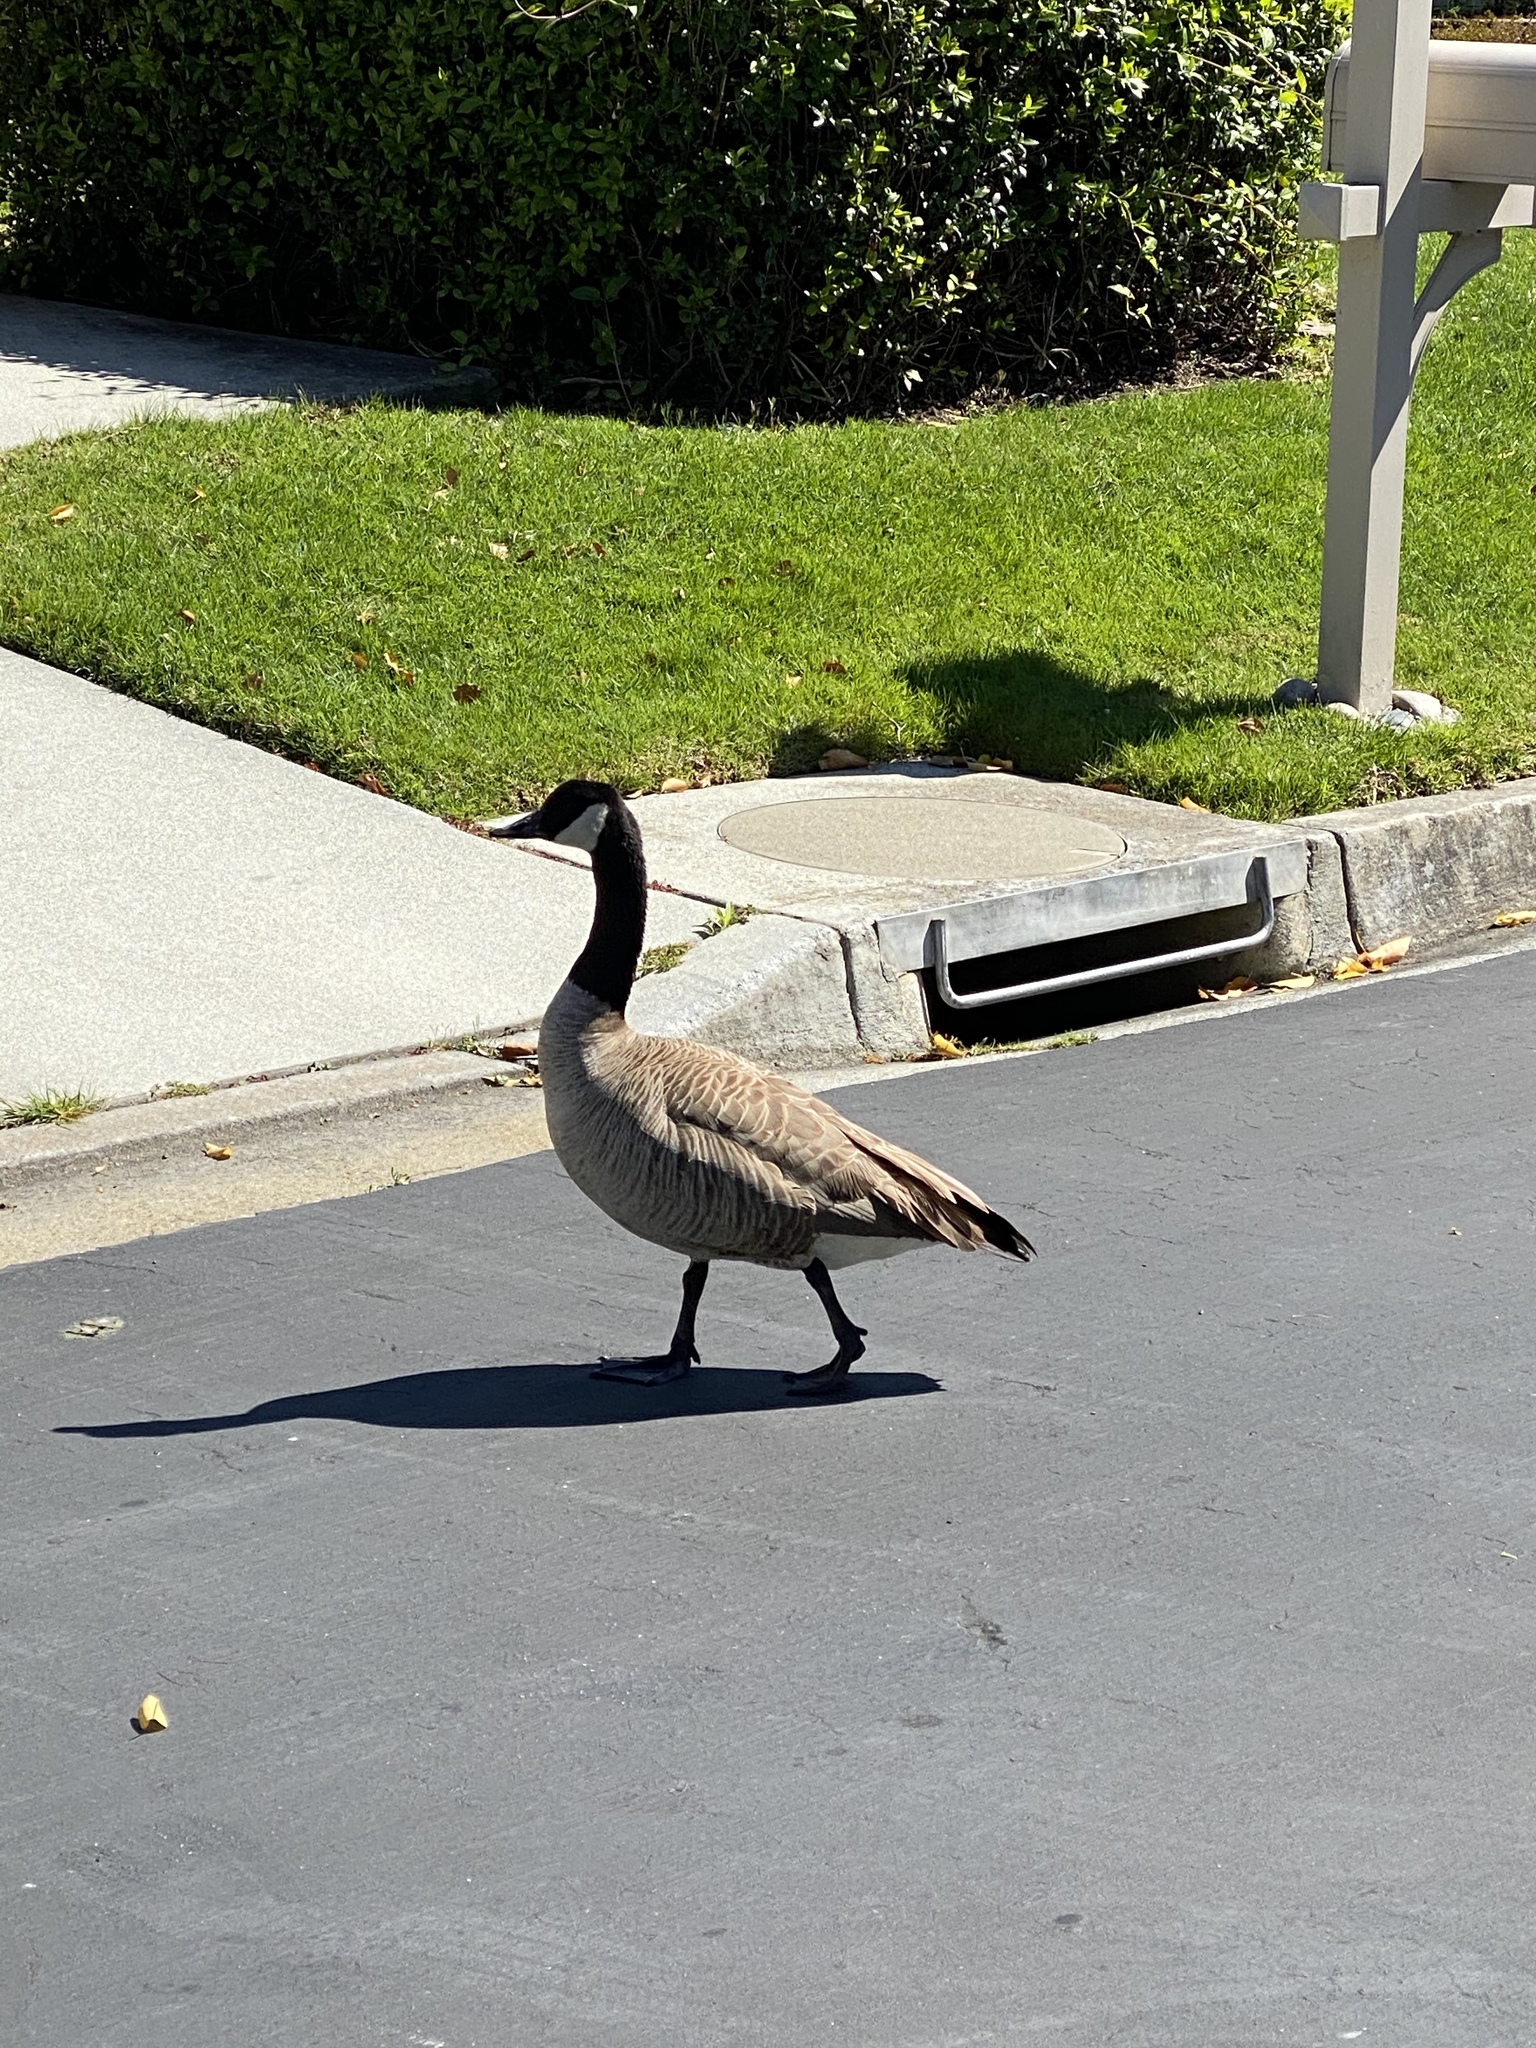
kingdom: Animalia
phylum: Chordata
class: Aves
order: Anseriformes
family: Anatidae
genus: Branta
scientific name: Branta canadensis
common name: Canada goose
